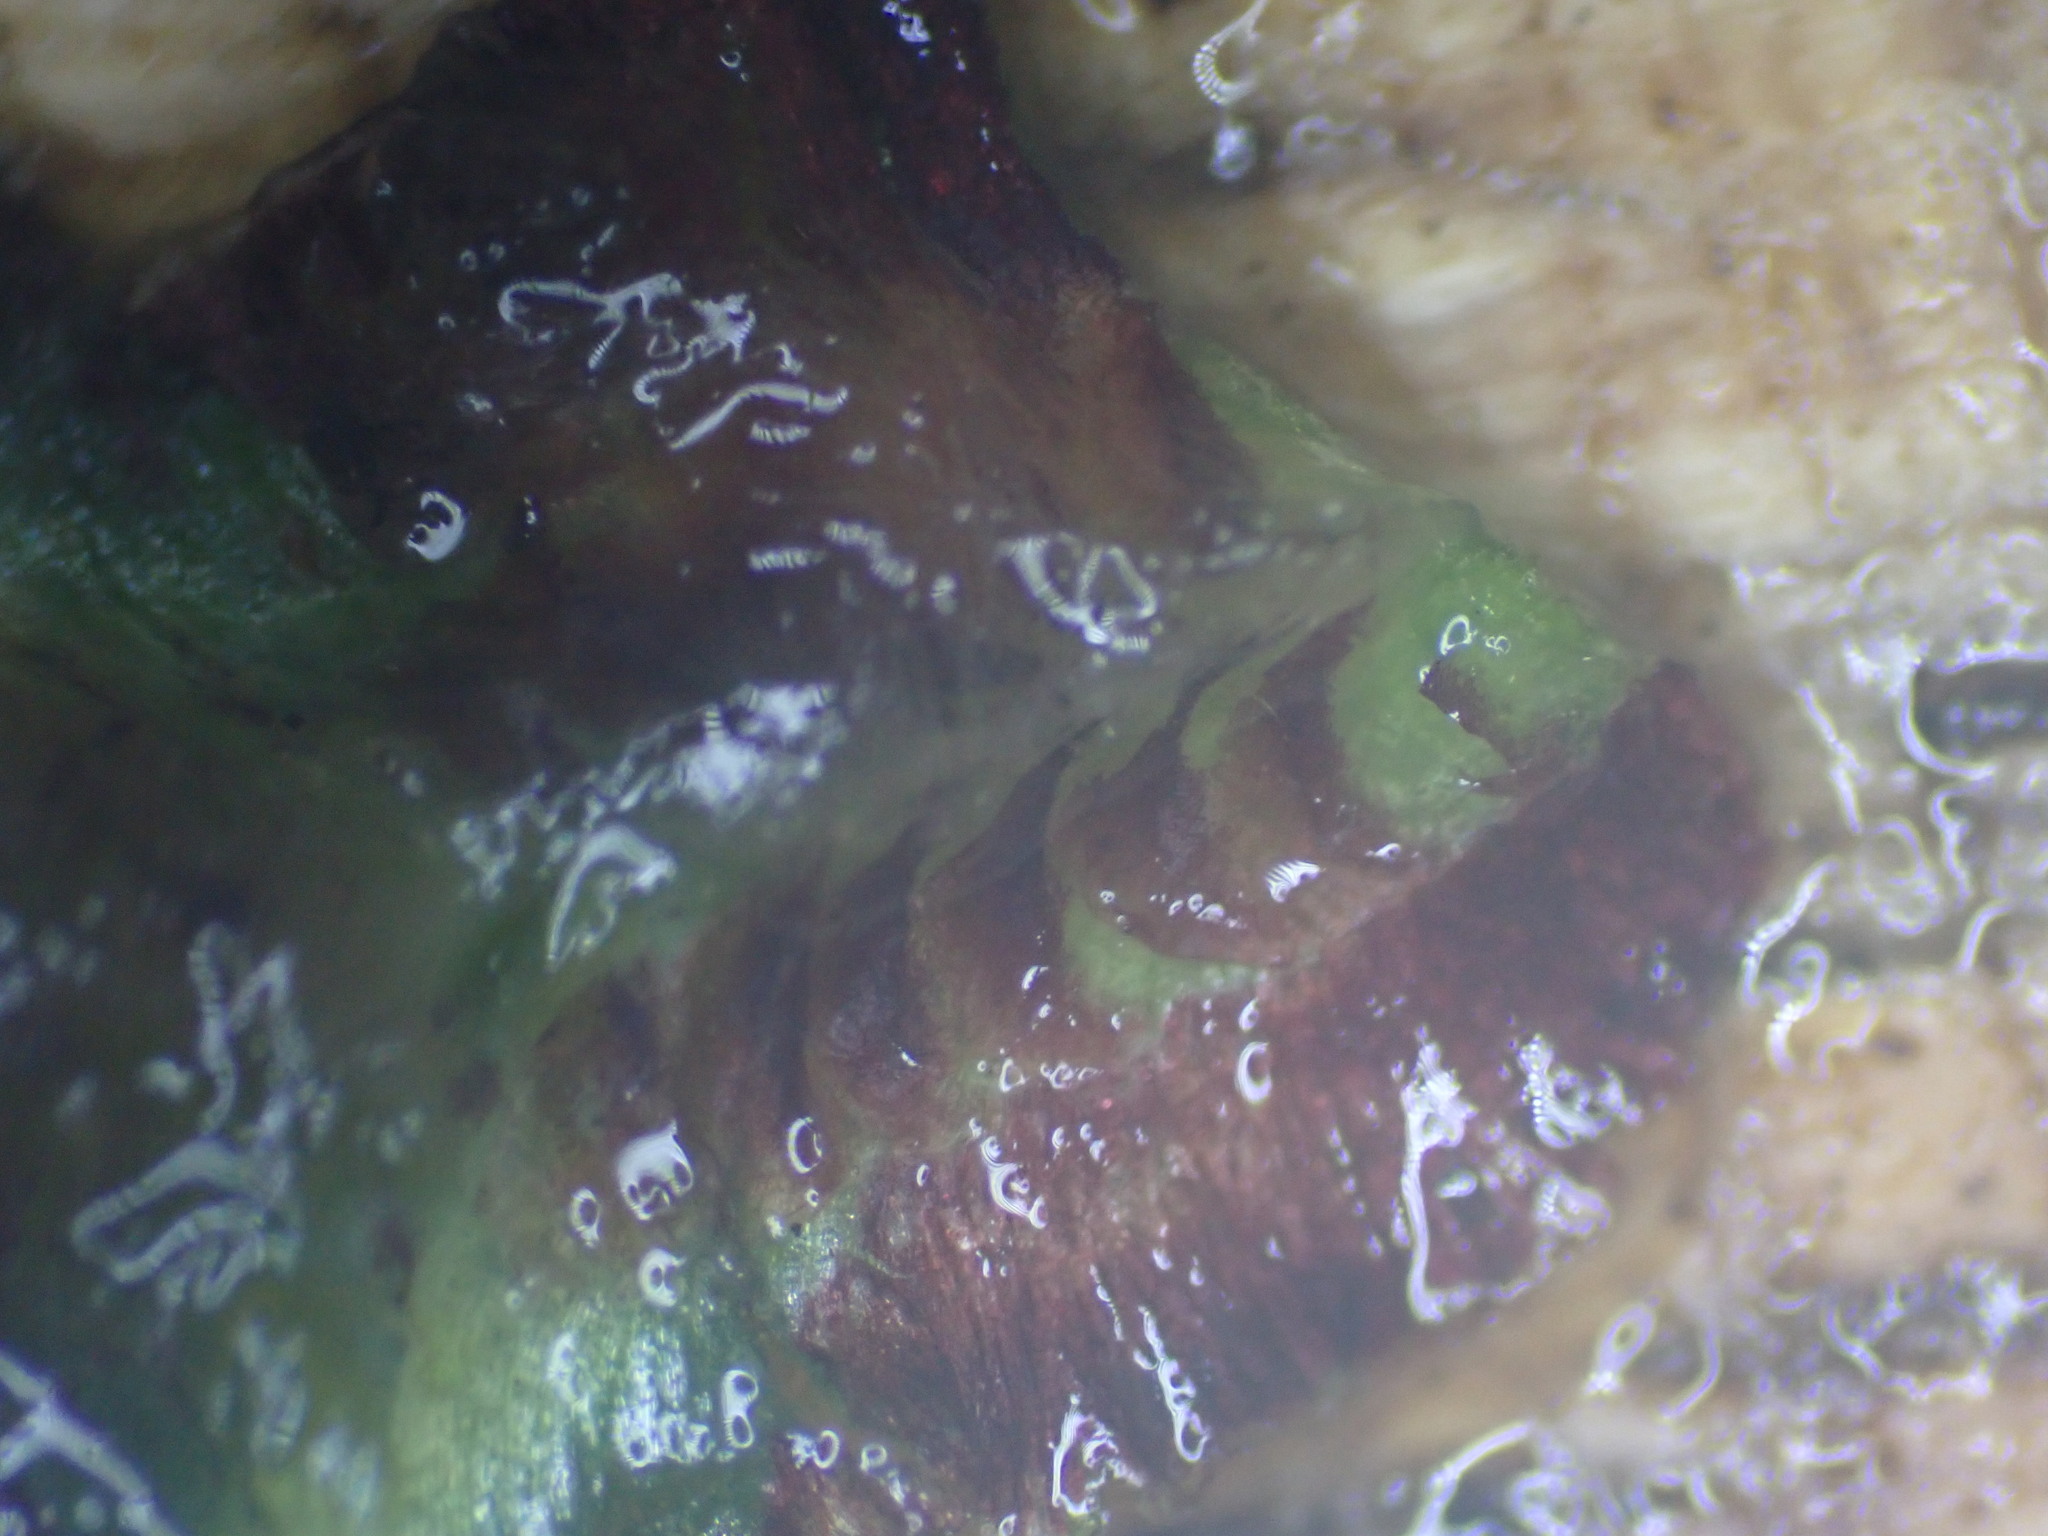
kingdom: Plantae
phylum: Marchantiophyta
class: Marchantiopsida
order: Marchantiales
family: Aytoniaceae
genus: Reboulia
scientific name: Reboulia hemisphaerica
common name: Purple-margined liverwort
